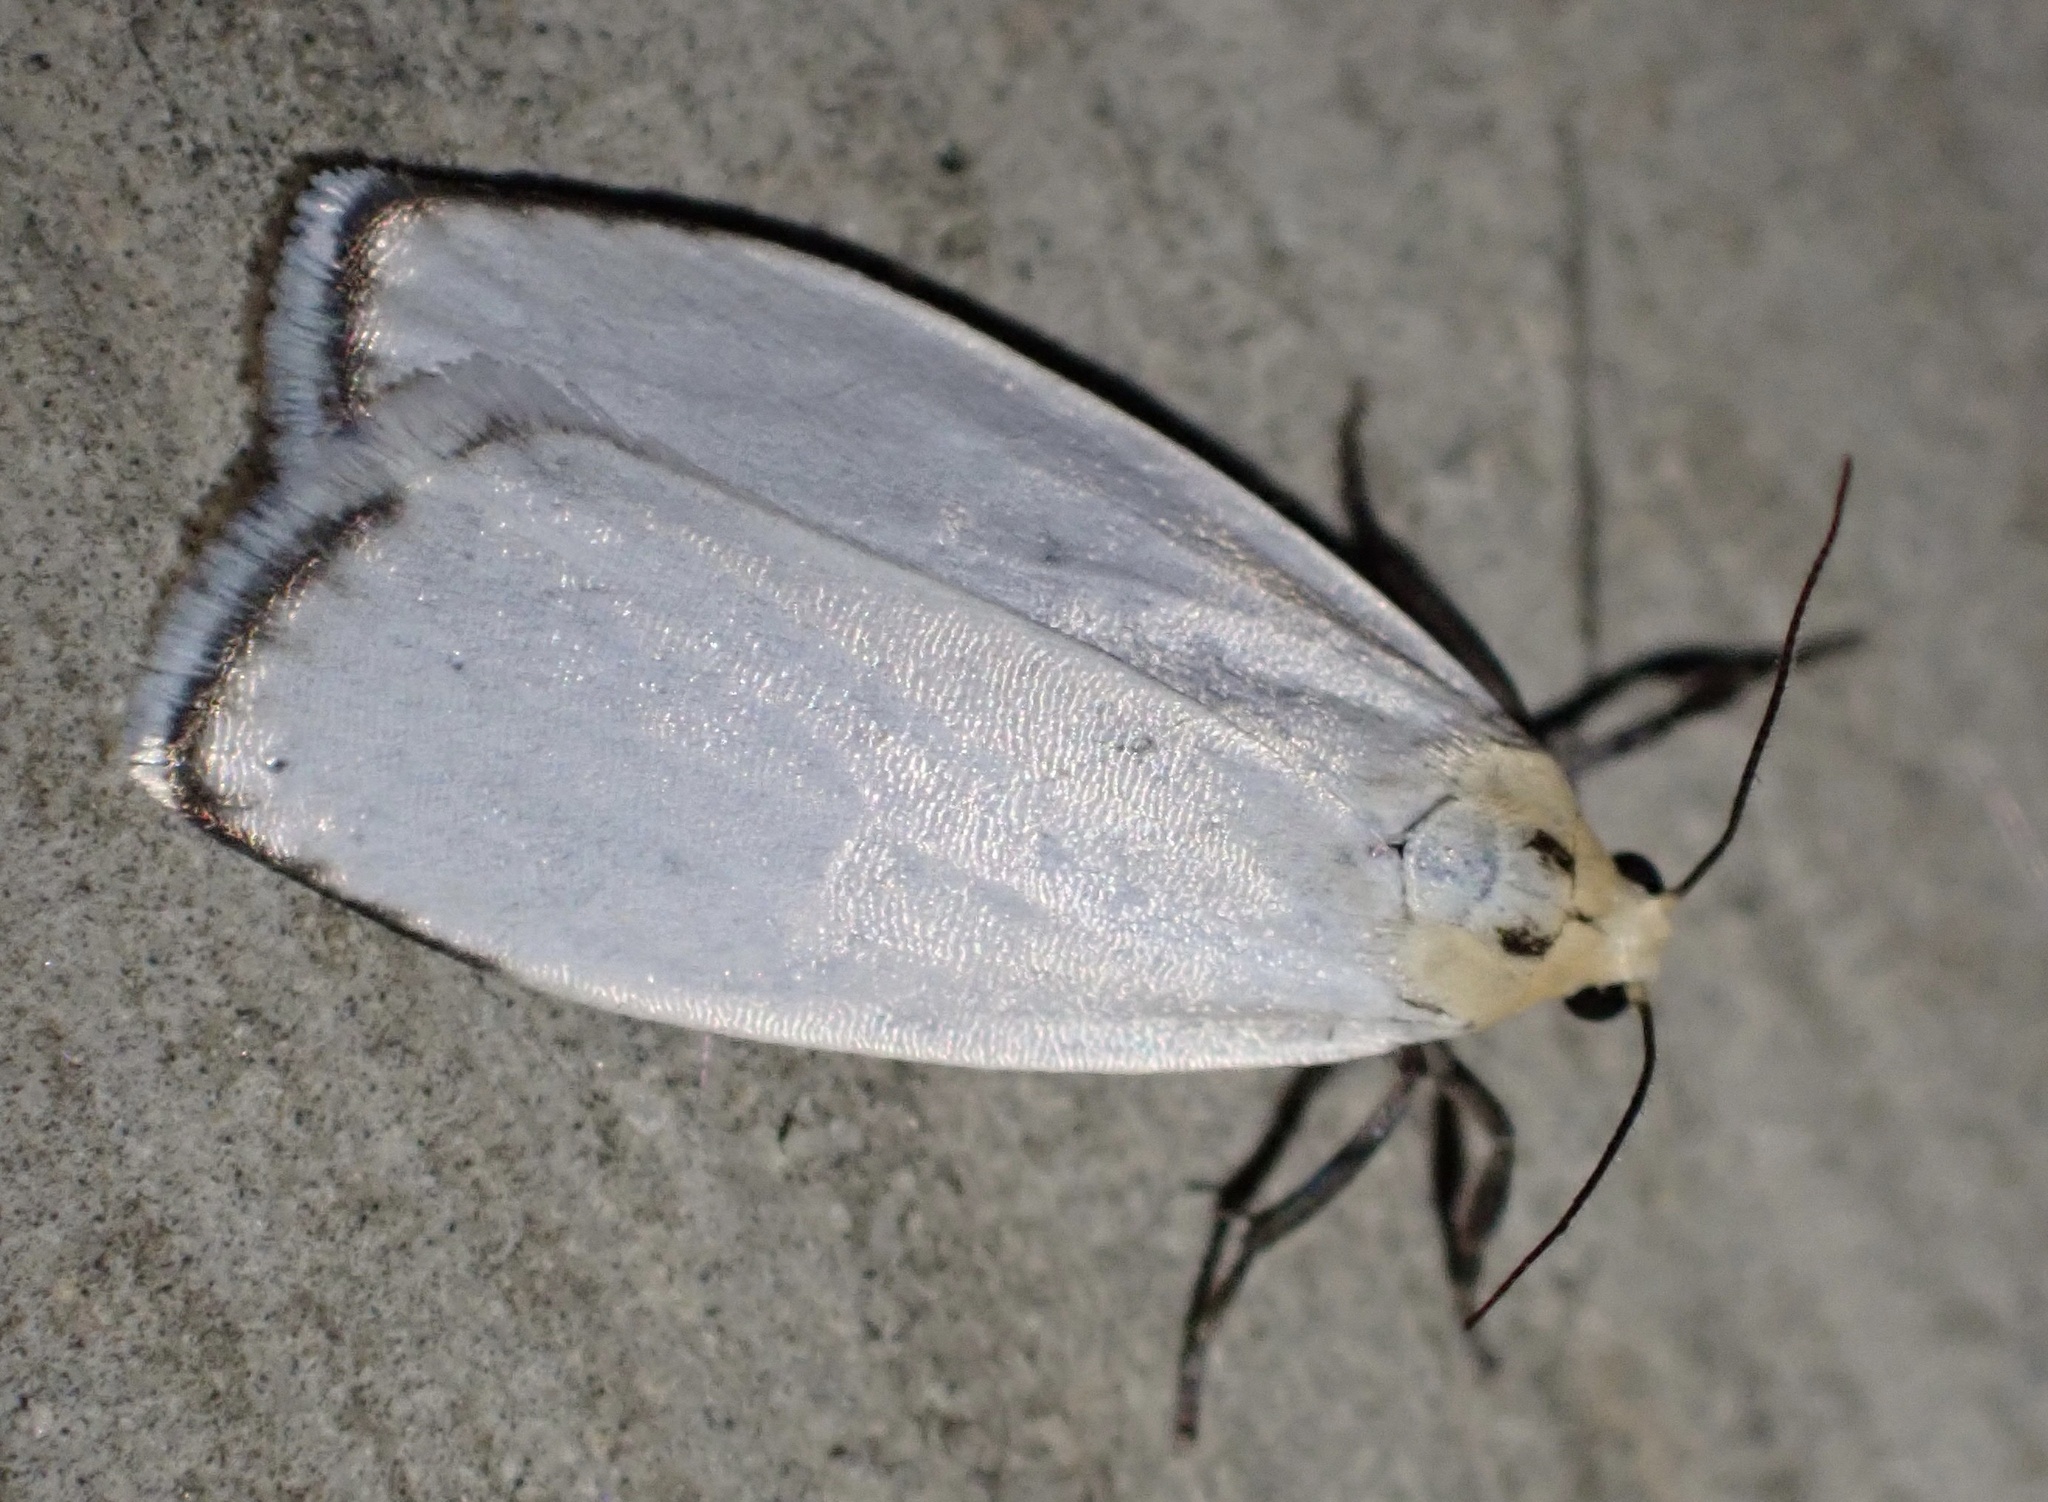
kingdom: Animalia
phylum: Arthropoda
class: Insecta
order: Lepidoptera
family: Erebidae
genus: Lambula
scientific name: Lambula vanrossemi
